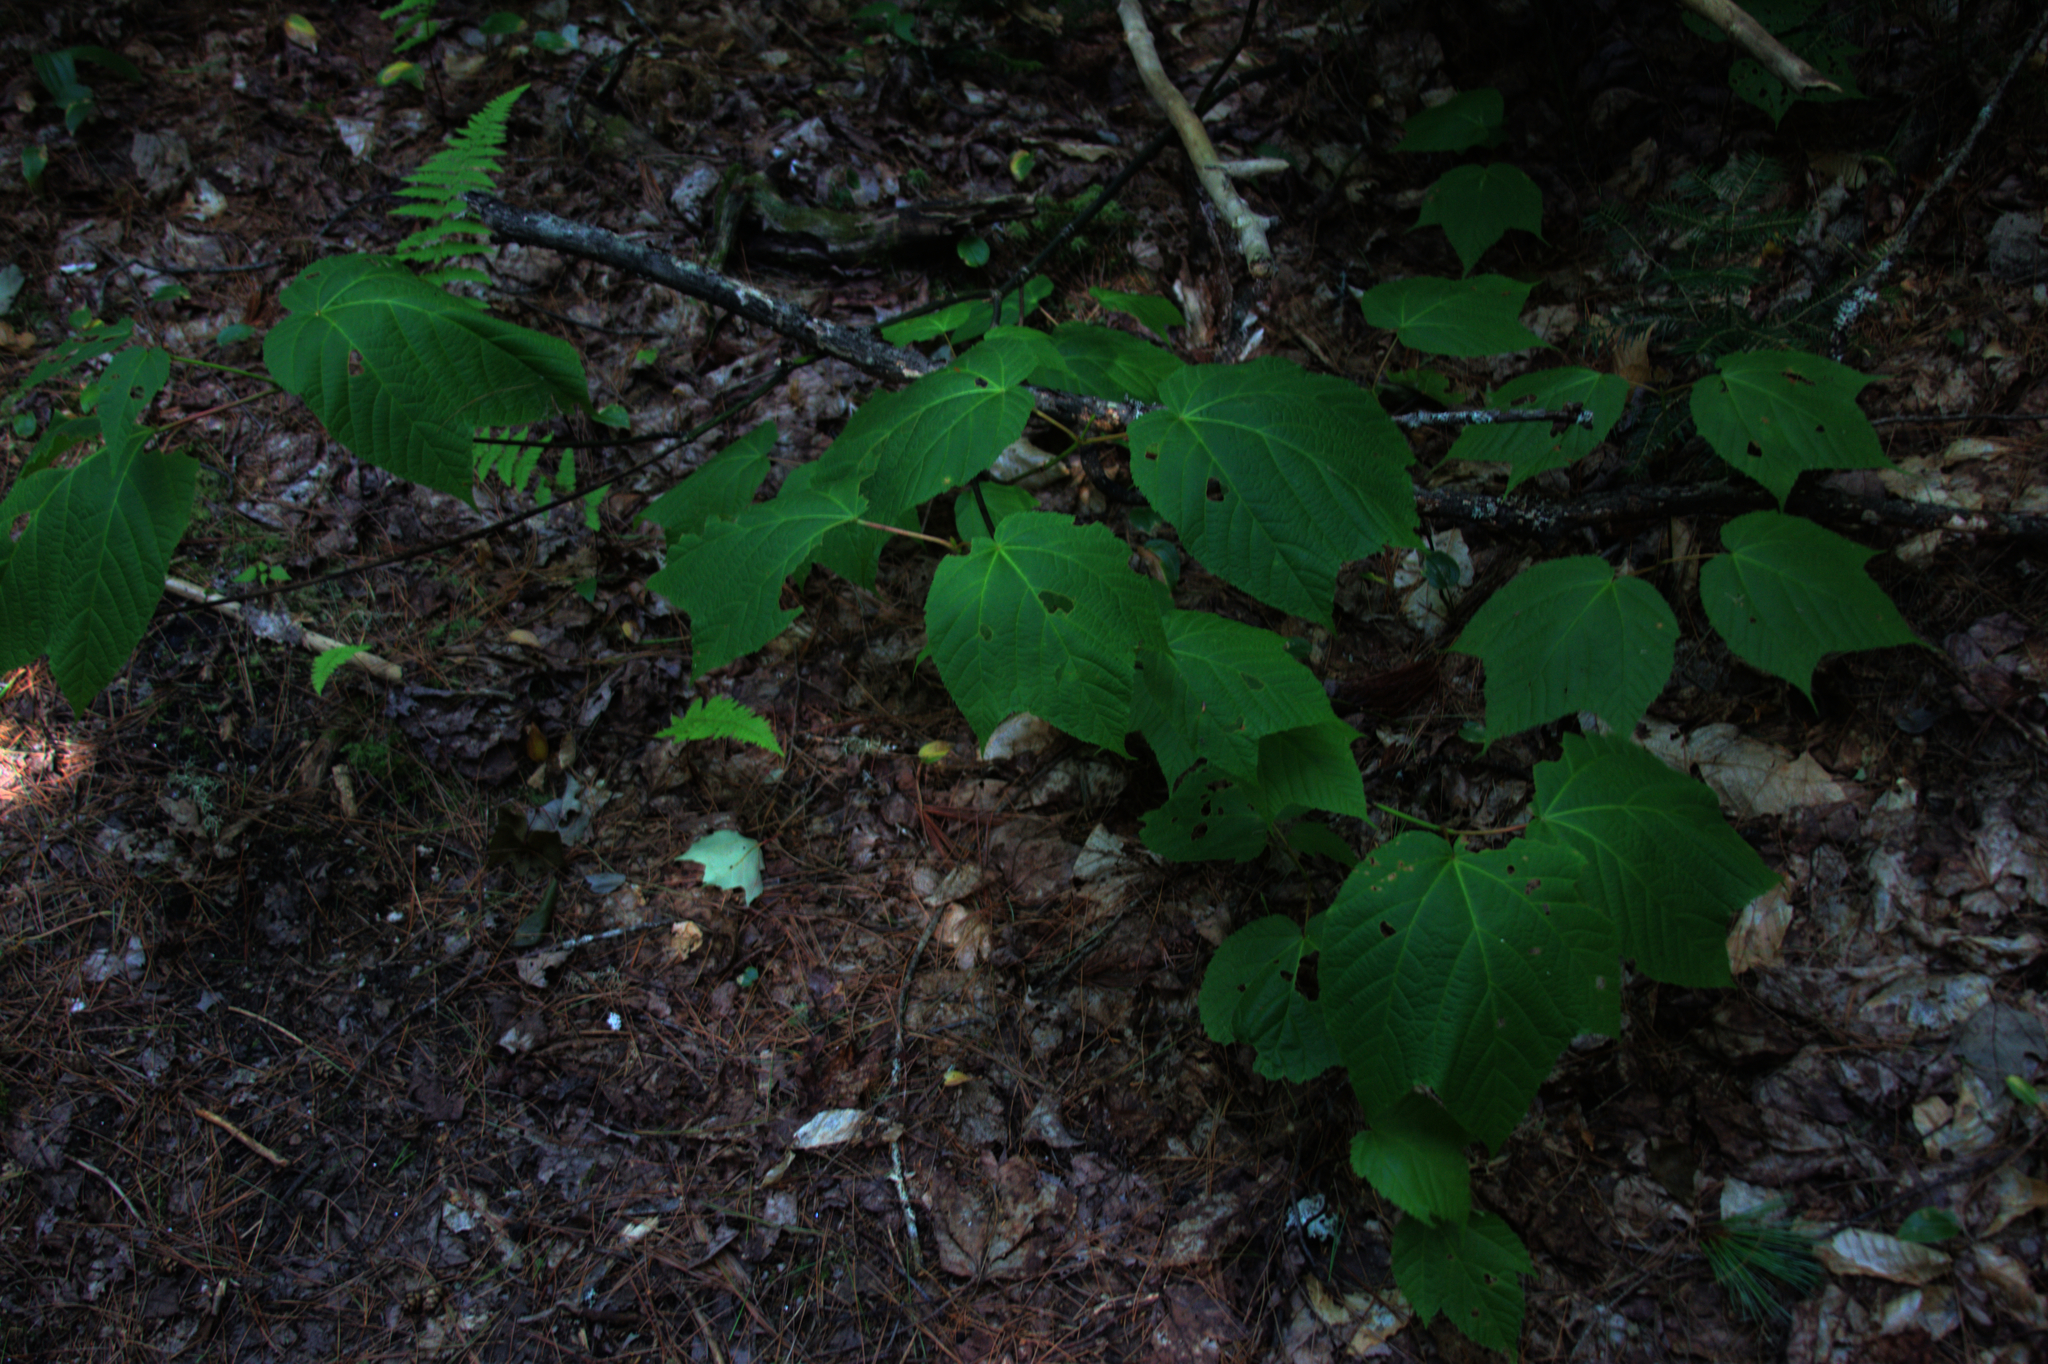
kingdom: Plantae
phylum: Tracheophyta
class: Magnoliopsida
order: Sapindales
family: Sapindaceae
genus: Acer
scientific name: Acer pensylvanicum
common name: Moosewood
